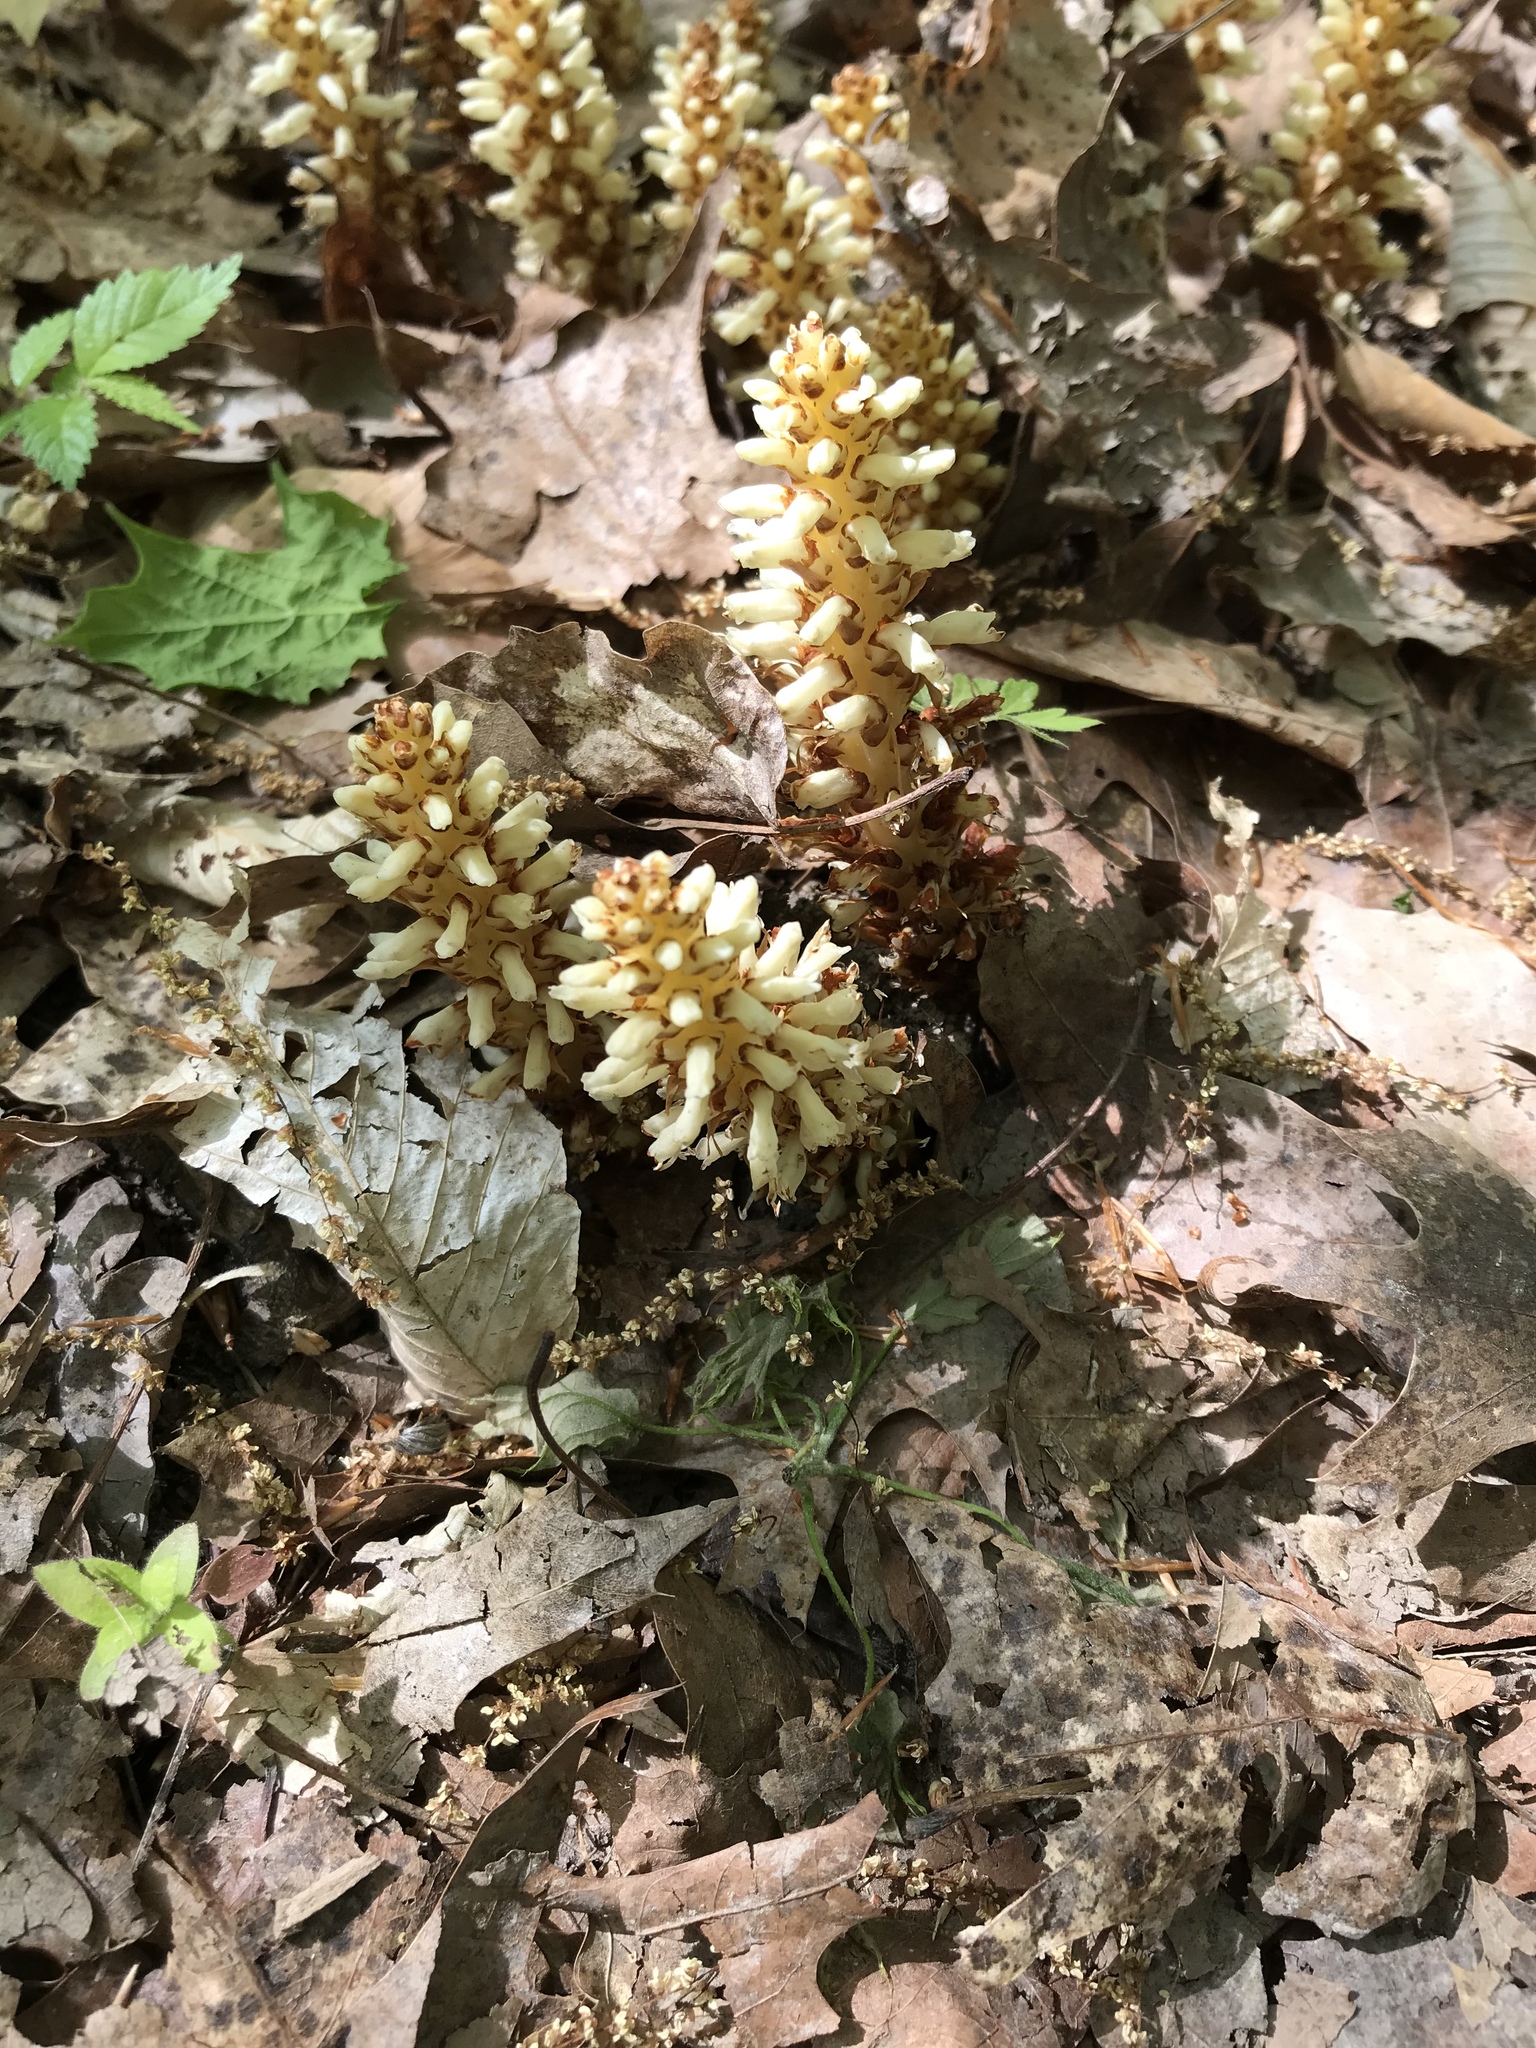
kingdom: Plantae
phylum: Tracheophyta
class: Magnoliopsida
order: Lamiales
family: Orobanchaceae
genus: Conopholis
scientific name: Conopholis americana
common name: American cancer-root
